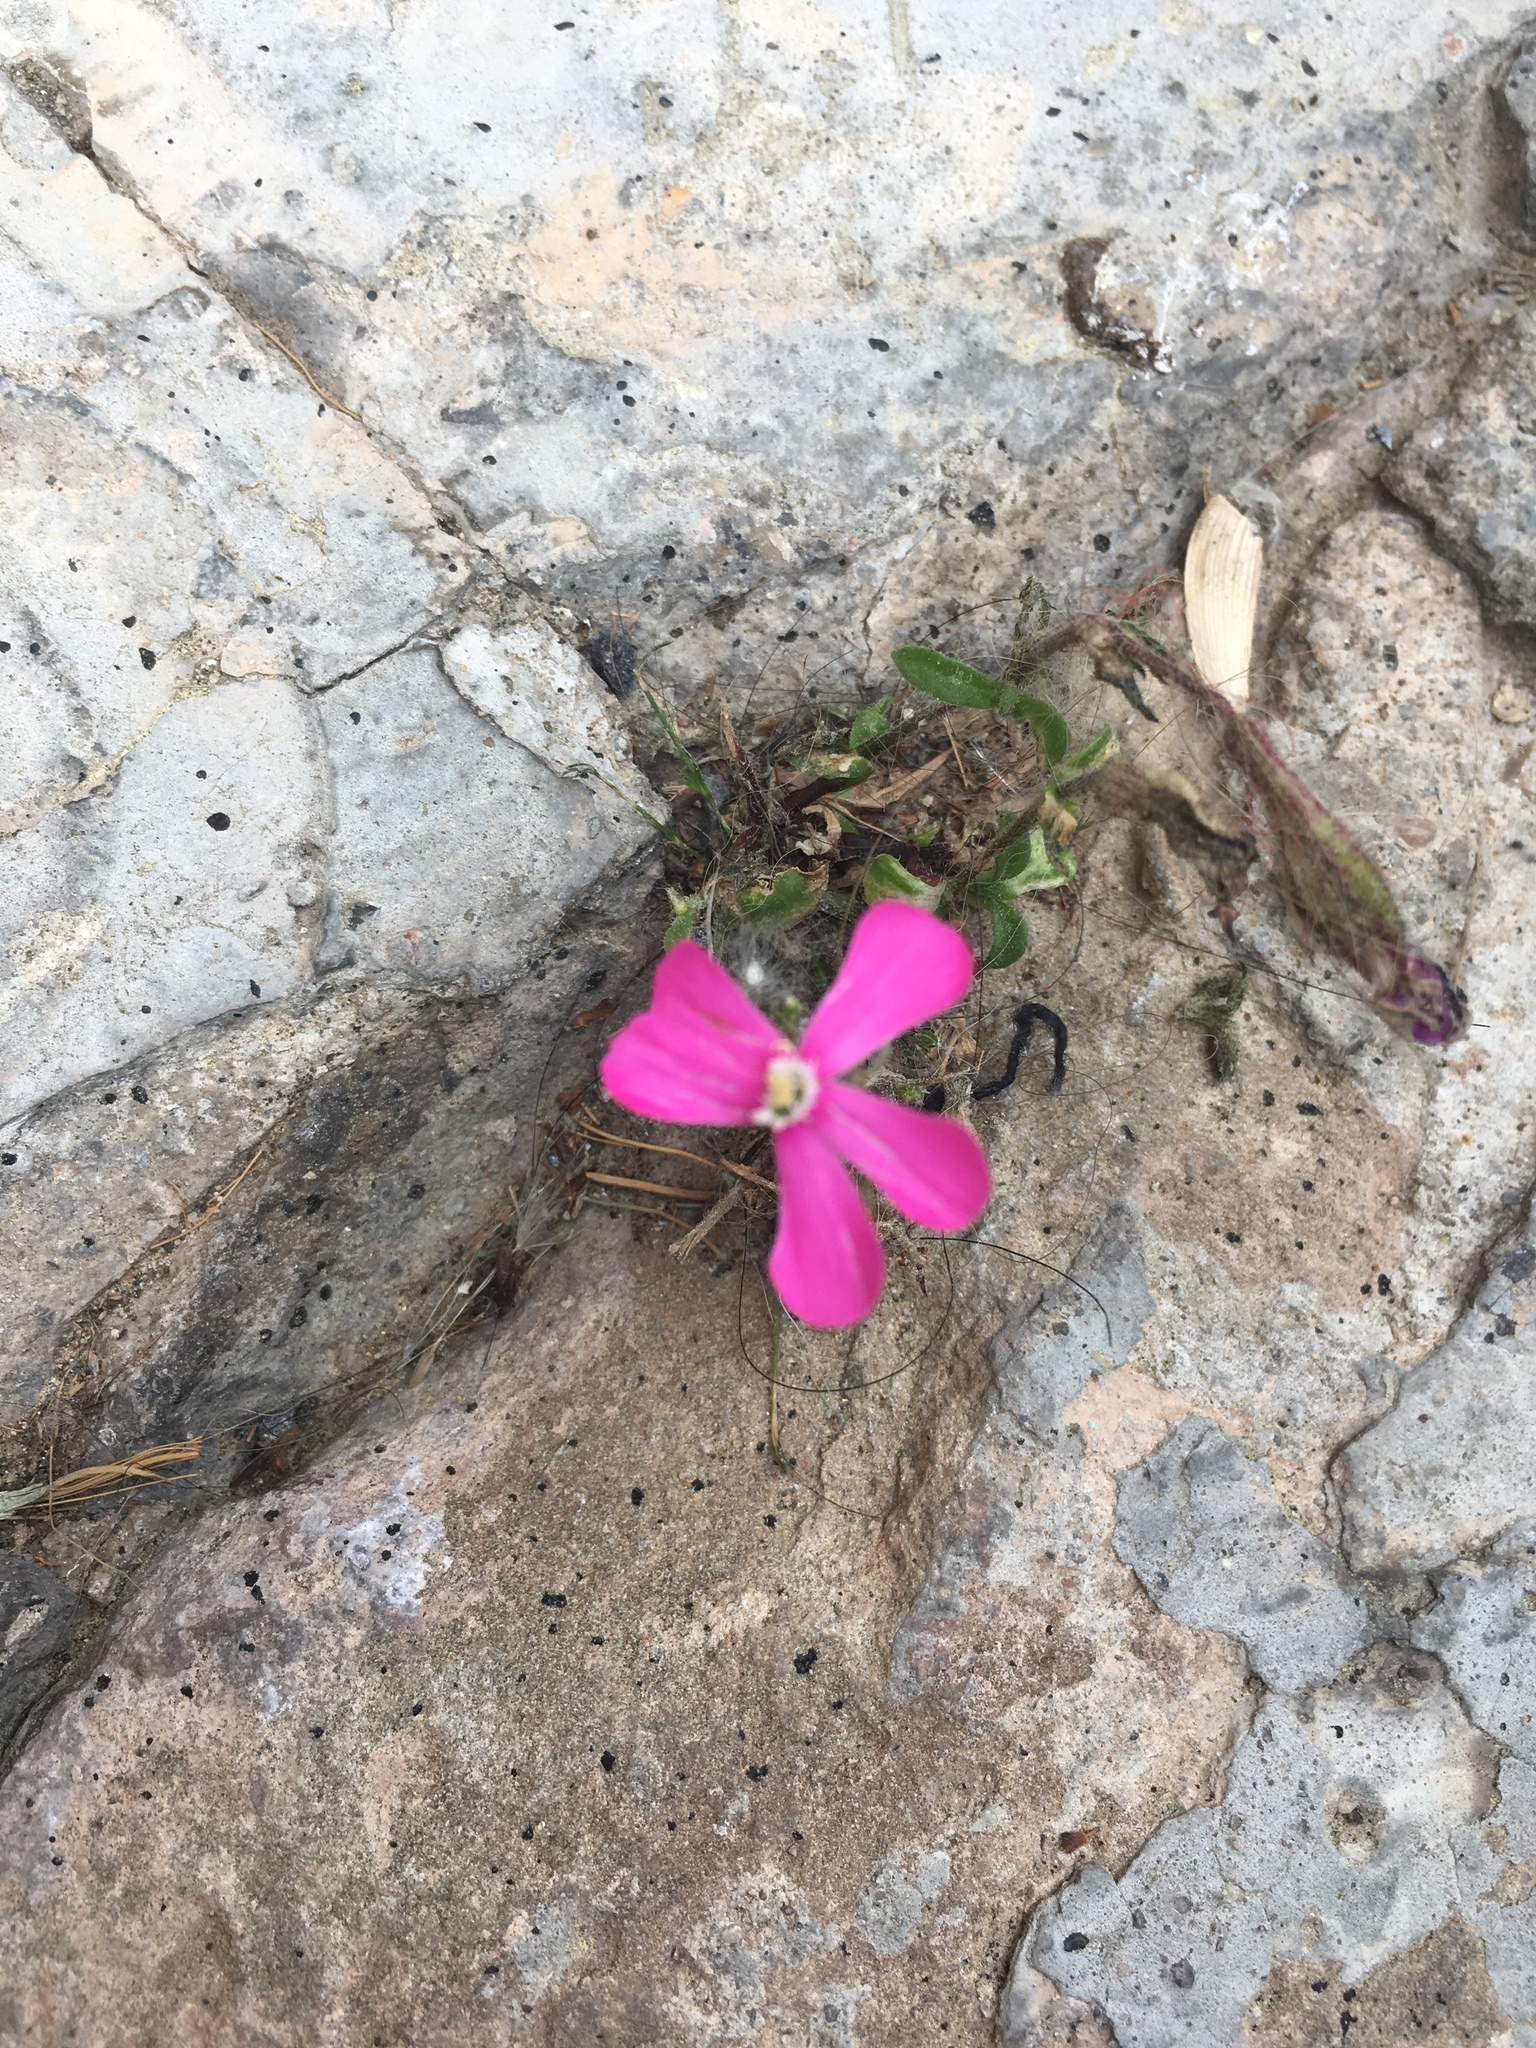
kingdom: Plantae
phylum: Tracheophyta
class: Magnoliopsida
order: Caryophyllales
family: Caryophyllaceae
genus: Silene
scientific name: Silene pseudoatocion
